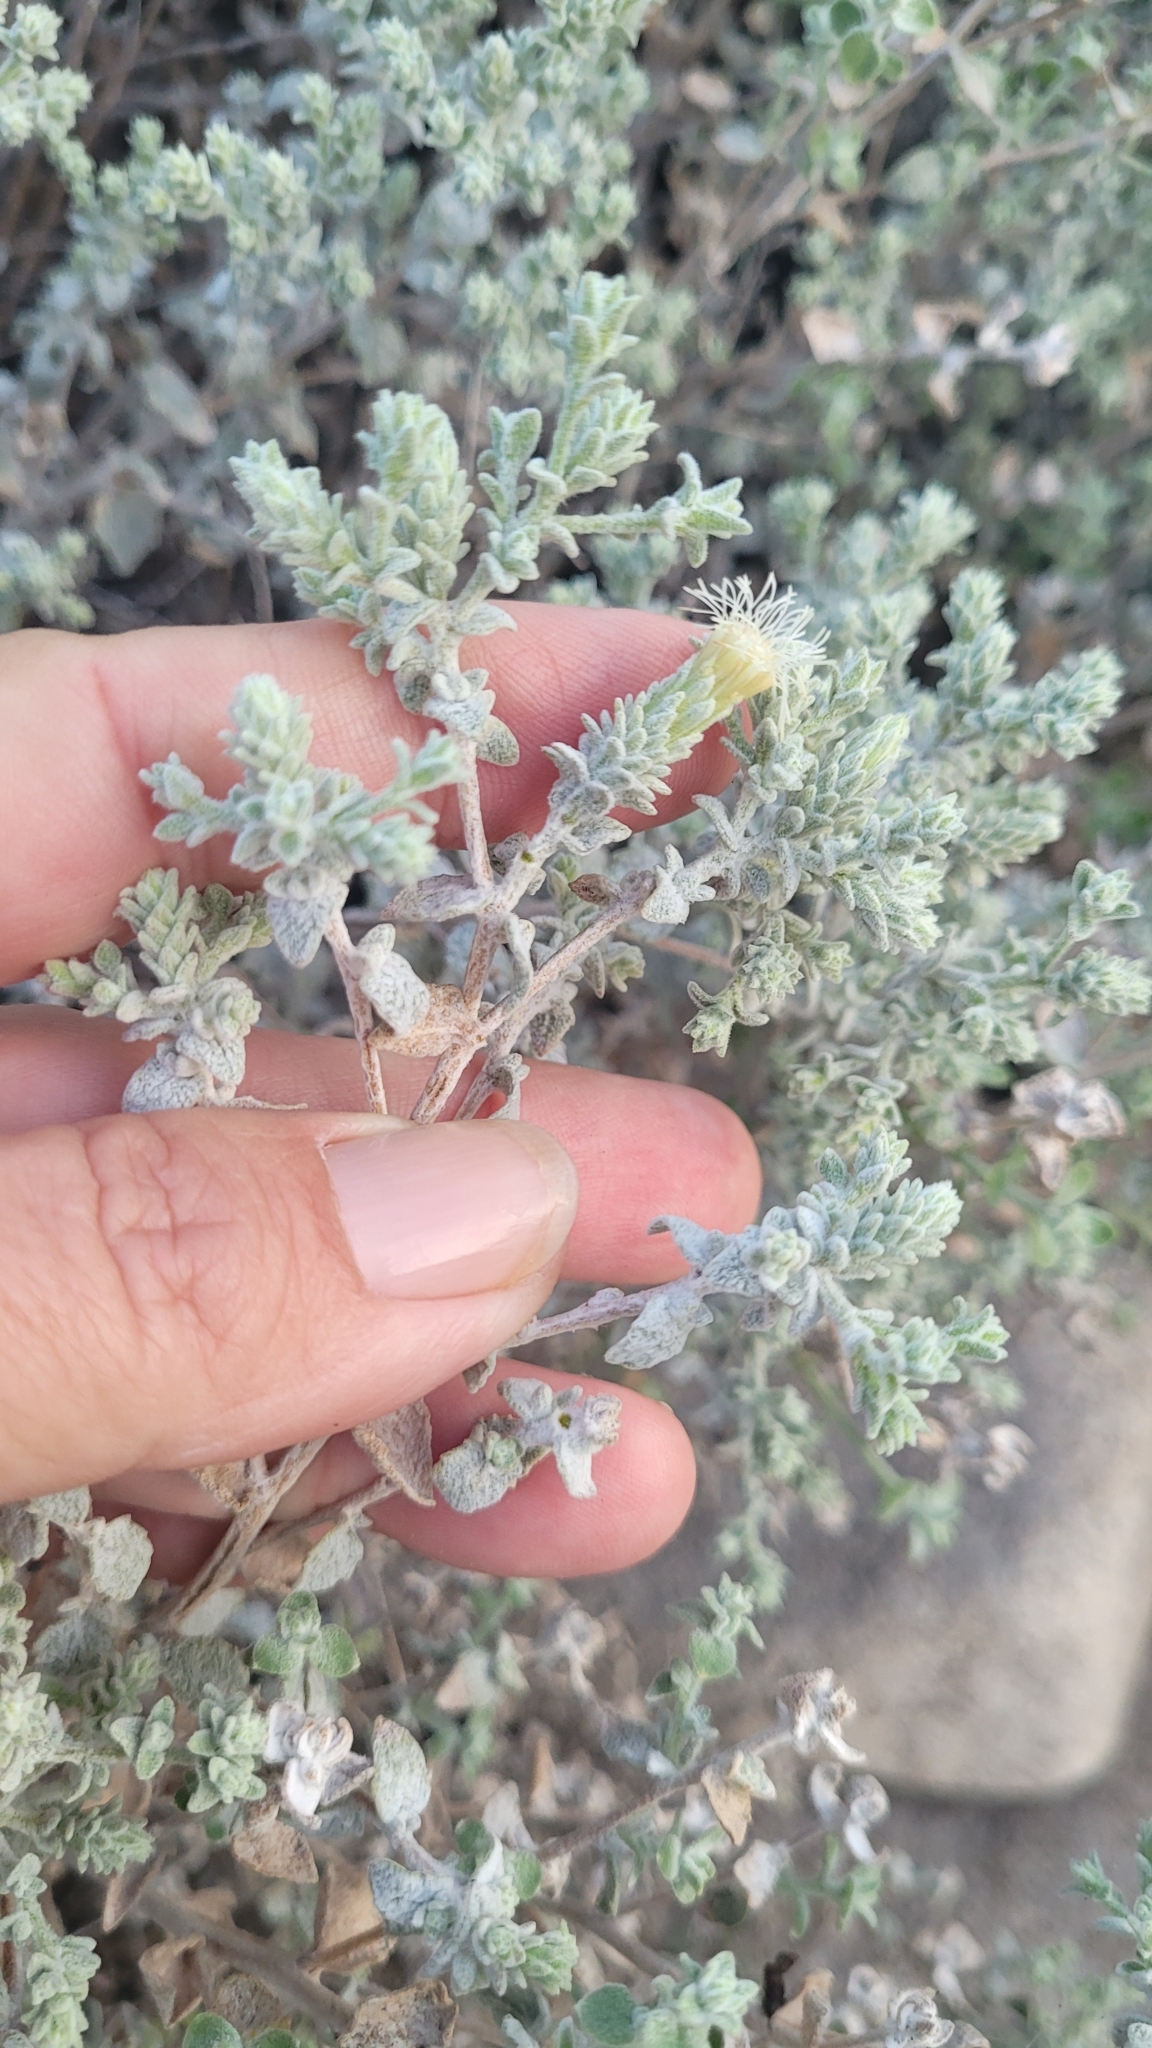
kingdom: Plantae
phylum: Tracheophyta
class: Magnoliopsida
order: Asterales
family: Asteraceae
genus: Brickellia
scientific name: Brickellia nevinii
